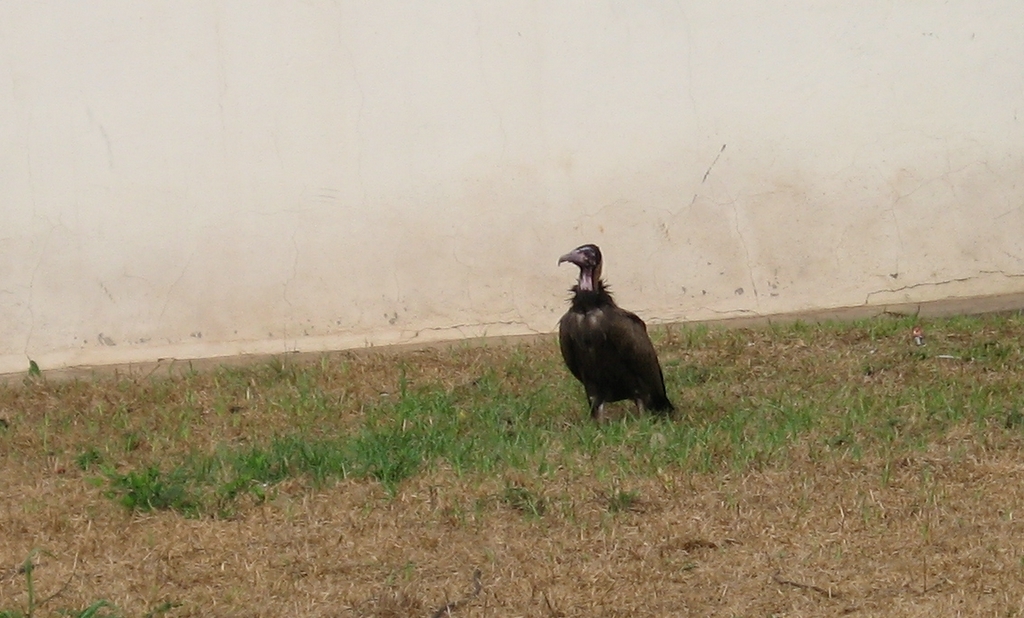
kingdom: Animalia
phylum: Chordata
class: Aves
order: Accipitriformes
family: Accipitridae
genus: Necrosyrtes
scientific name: Necrosyrtes monachus
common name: Hooded vulture
